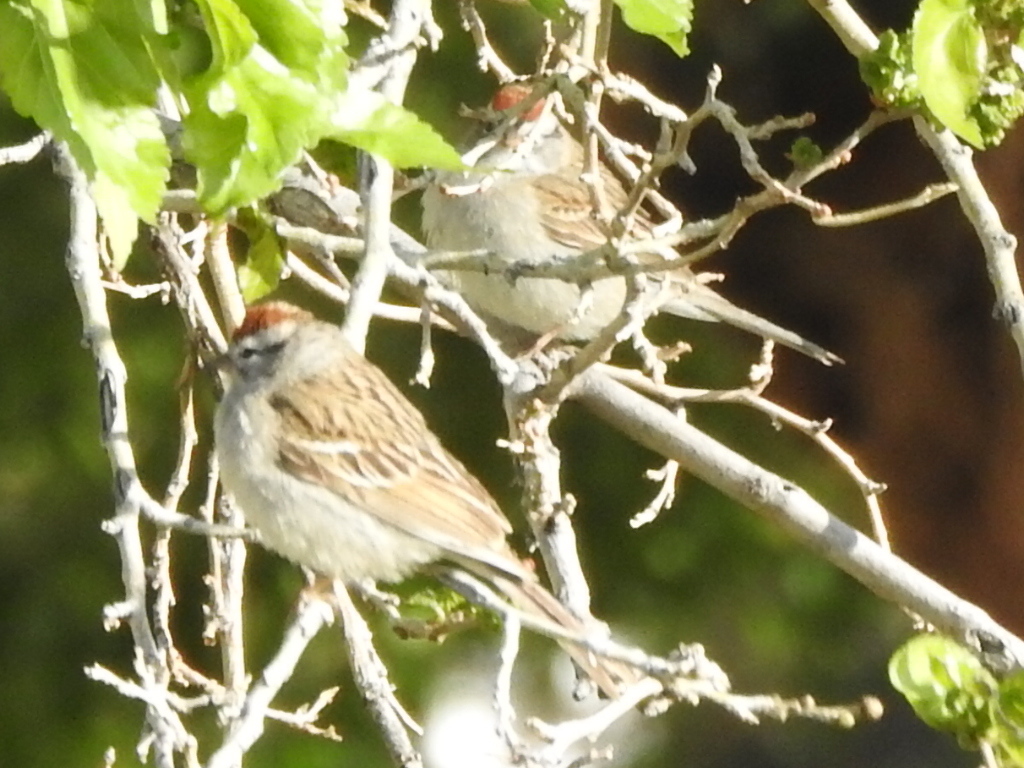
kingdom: Animalia
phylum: Chordata
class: Aves
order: Passeriformes
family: Passerellidae
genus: Spizella
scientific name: Spizella passerina
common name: Chipping sparrow
